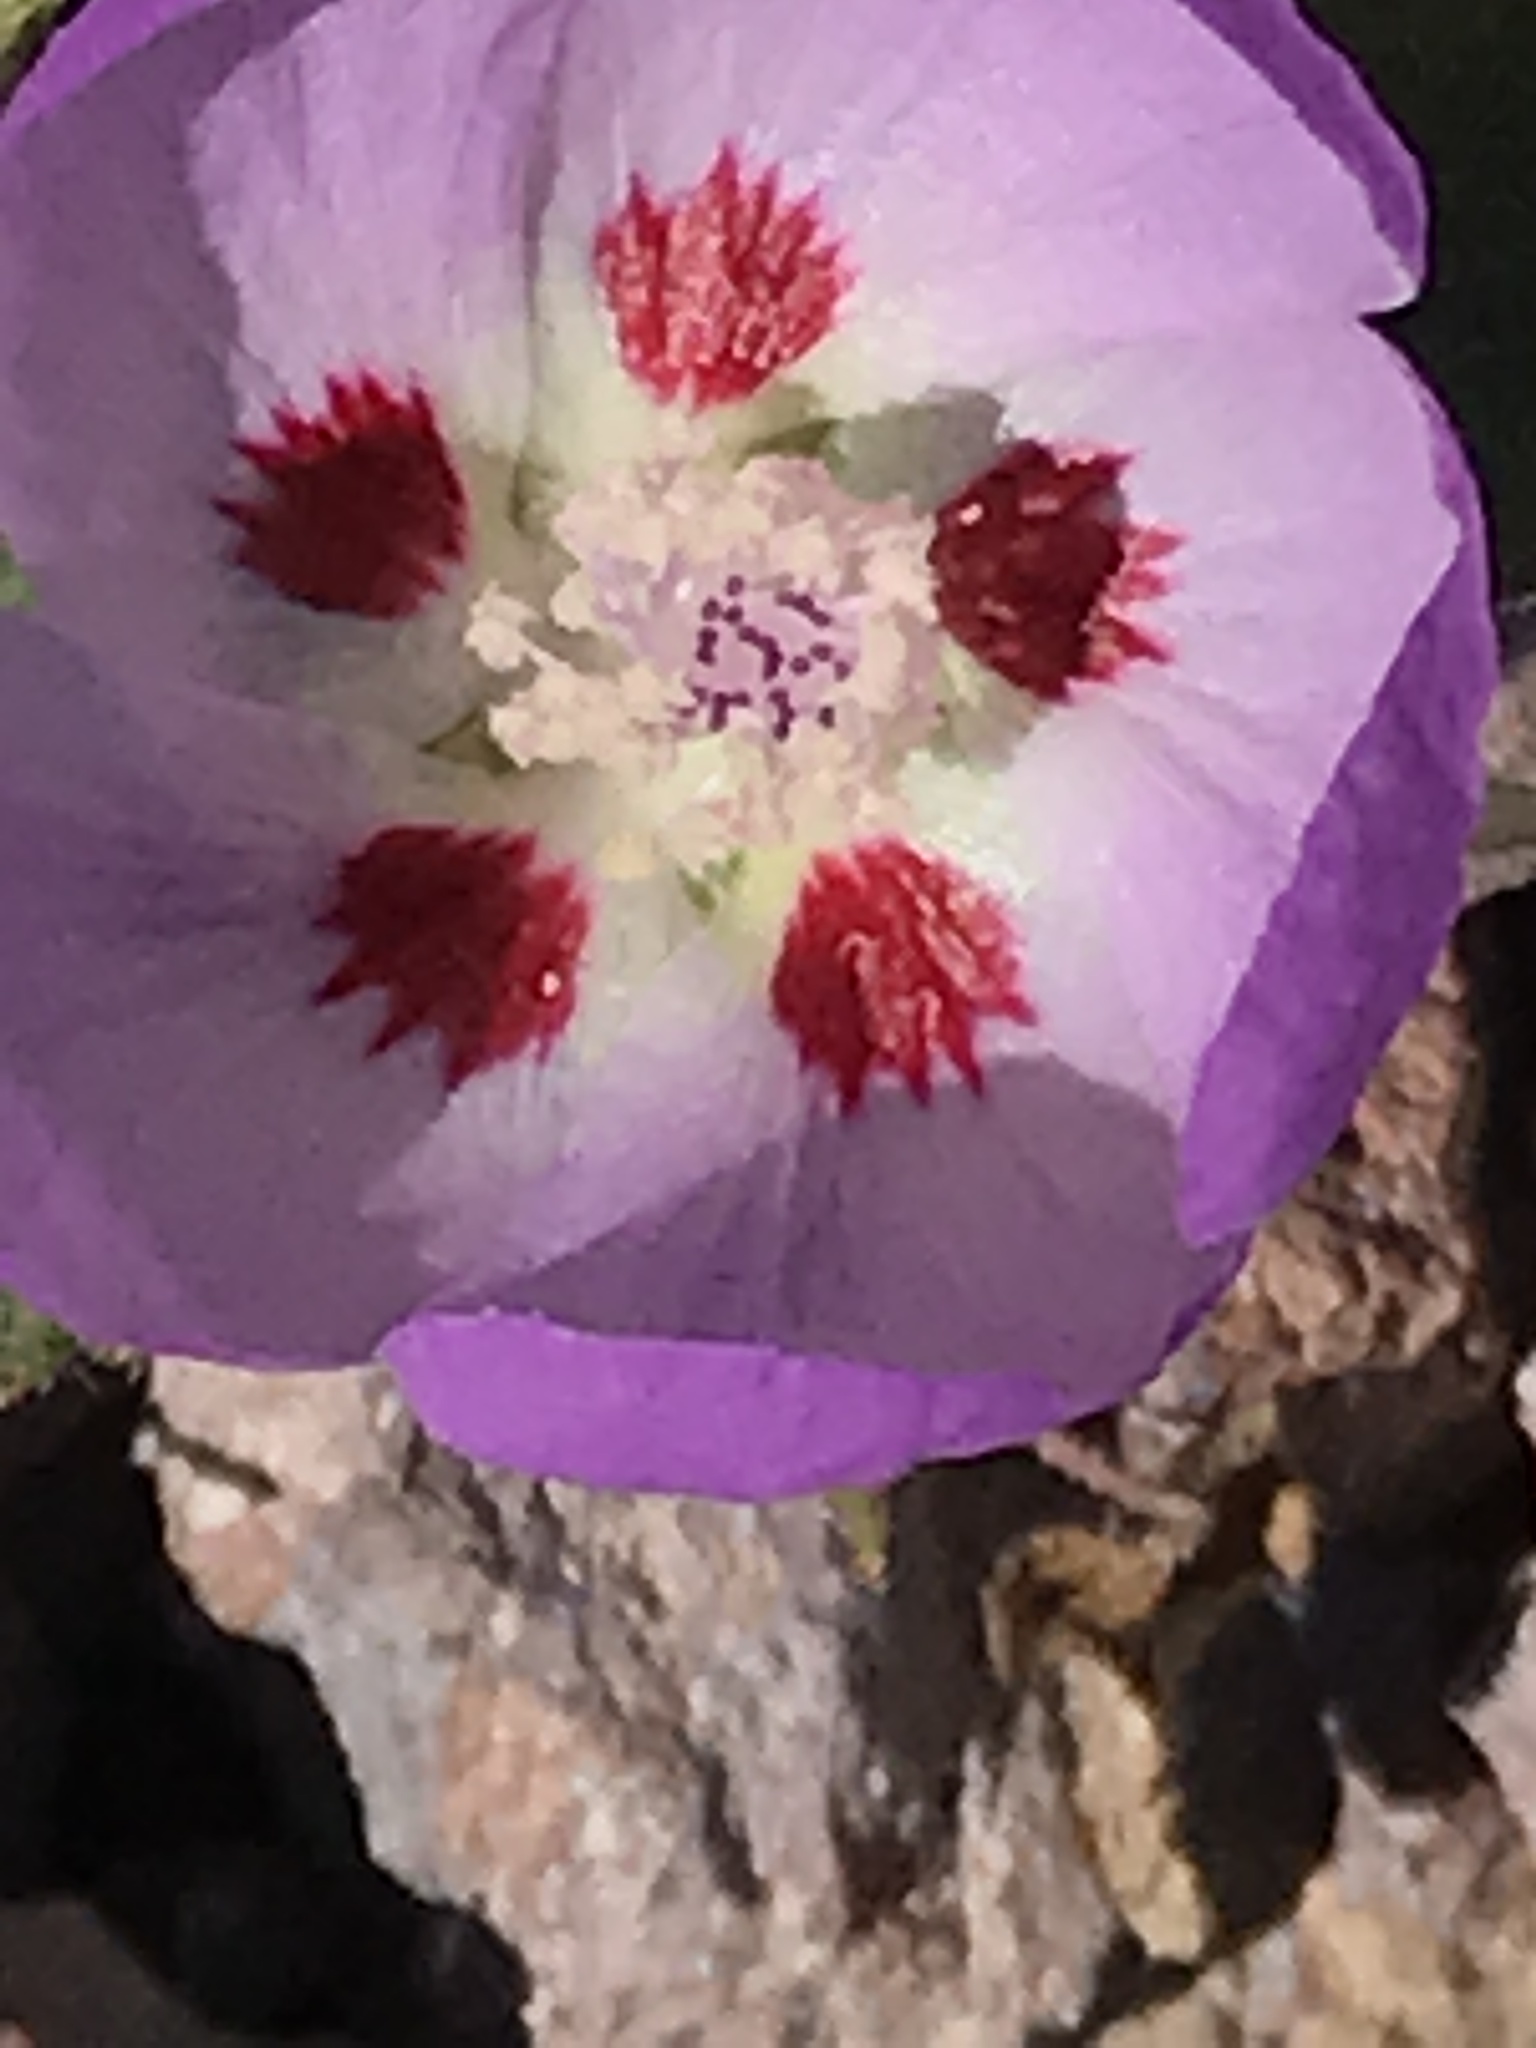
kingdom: Plantae
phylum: Tracheophyta
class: Magnoliopsida
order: Malvales
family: Malvaceae
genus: Eremalche
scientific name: Eremalche rotundifolia
